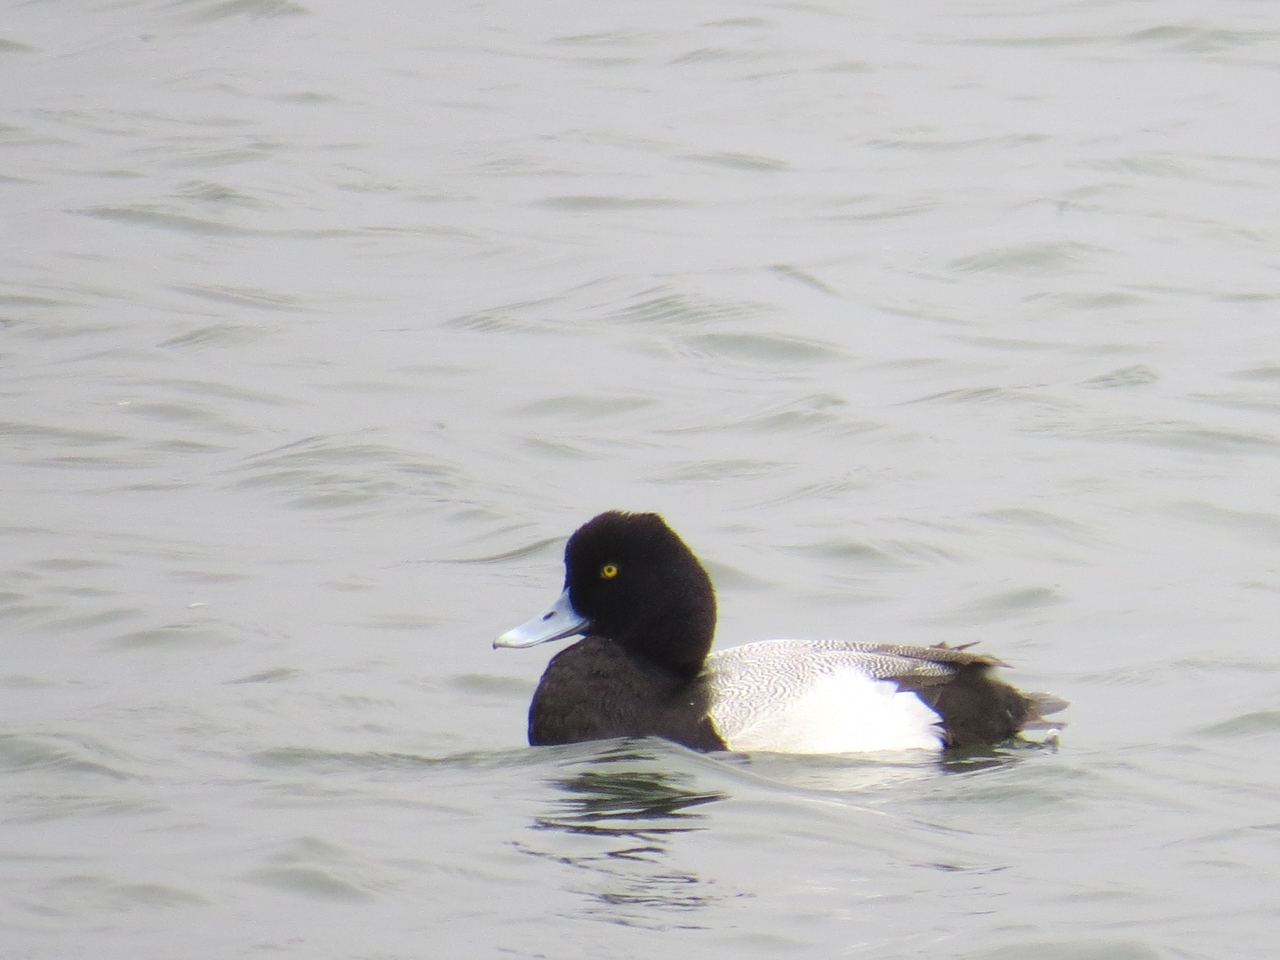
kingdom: Animalia
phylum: Chordata
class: Aves
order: Anseriformes
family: Anatidae
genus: Aythya
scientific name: Aythya affinis
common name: Lesser scaup
